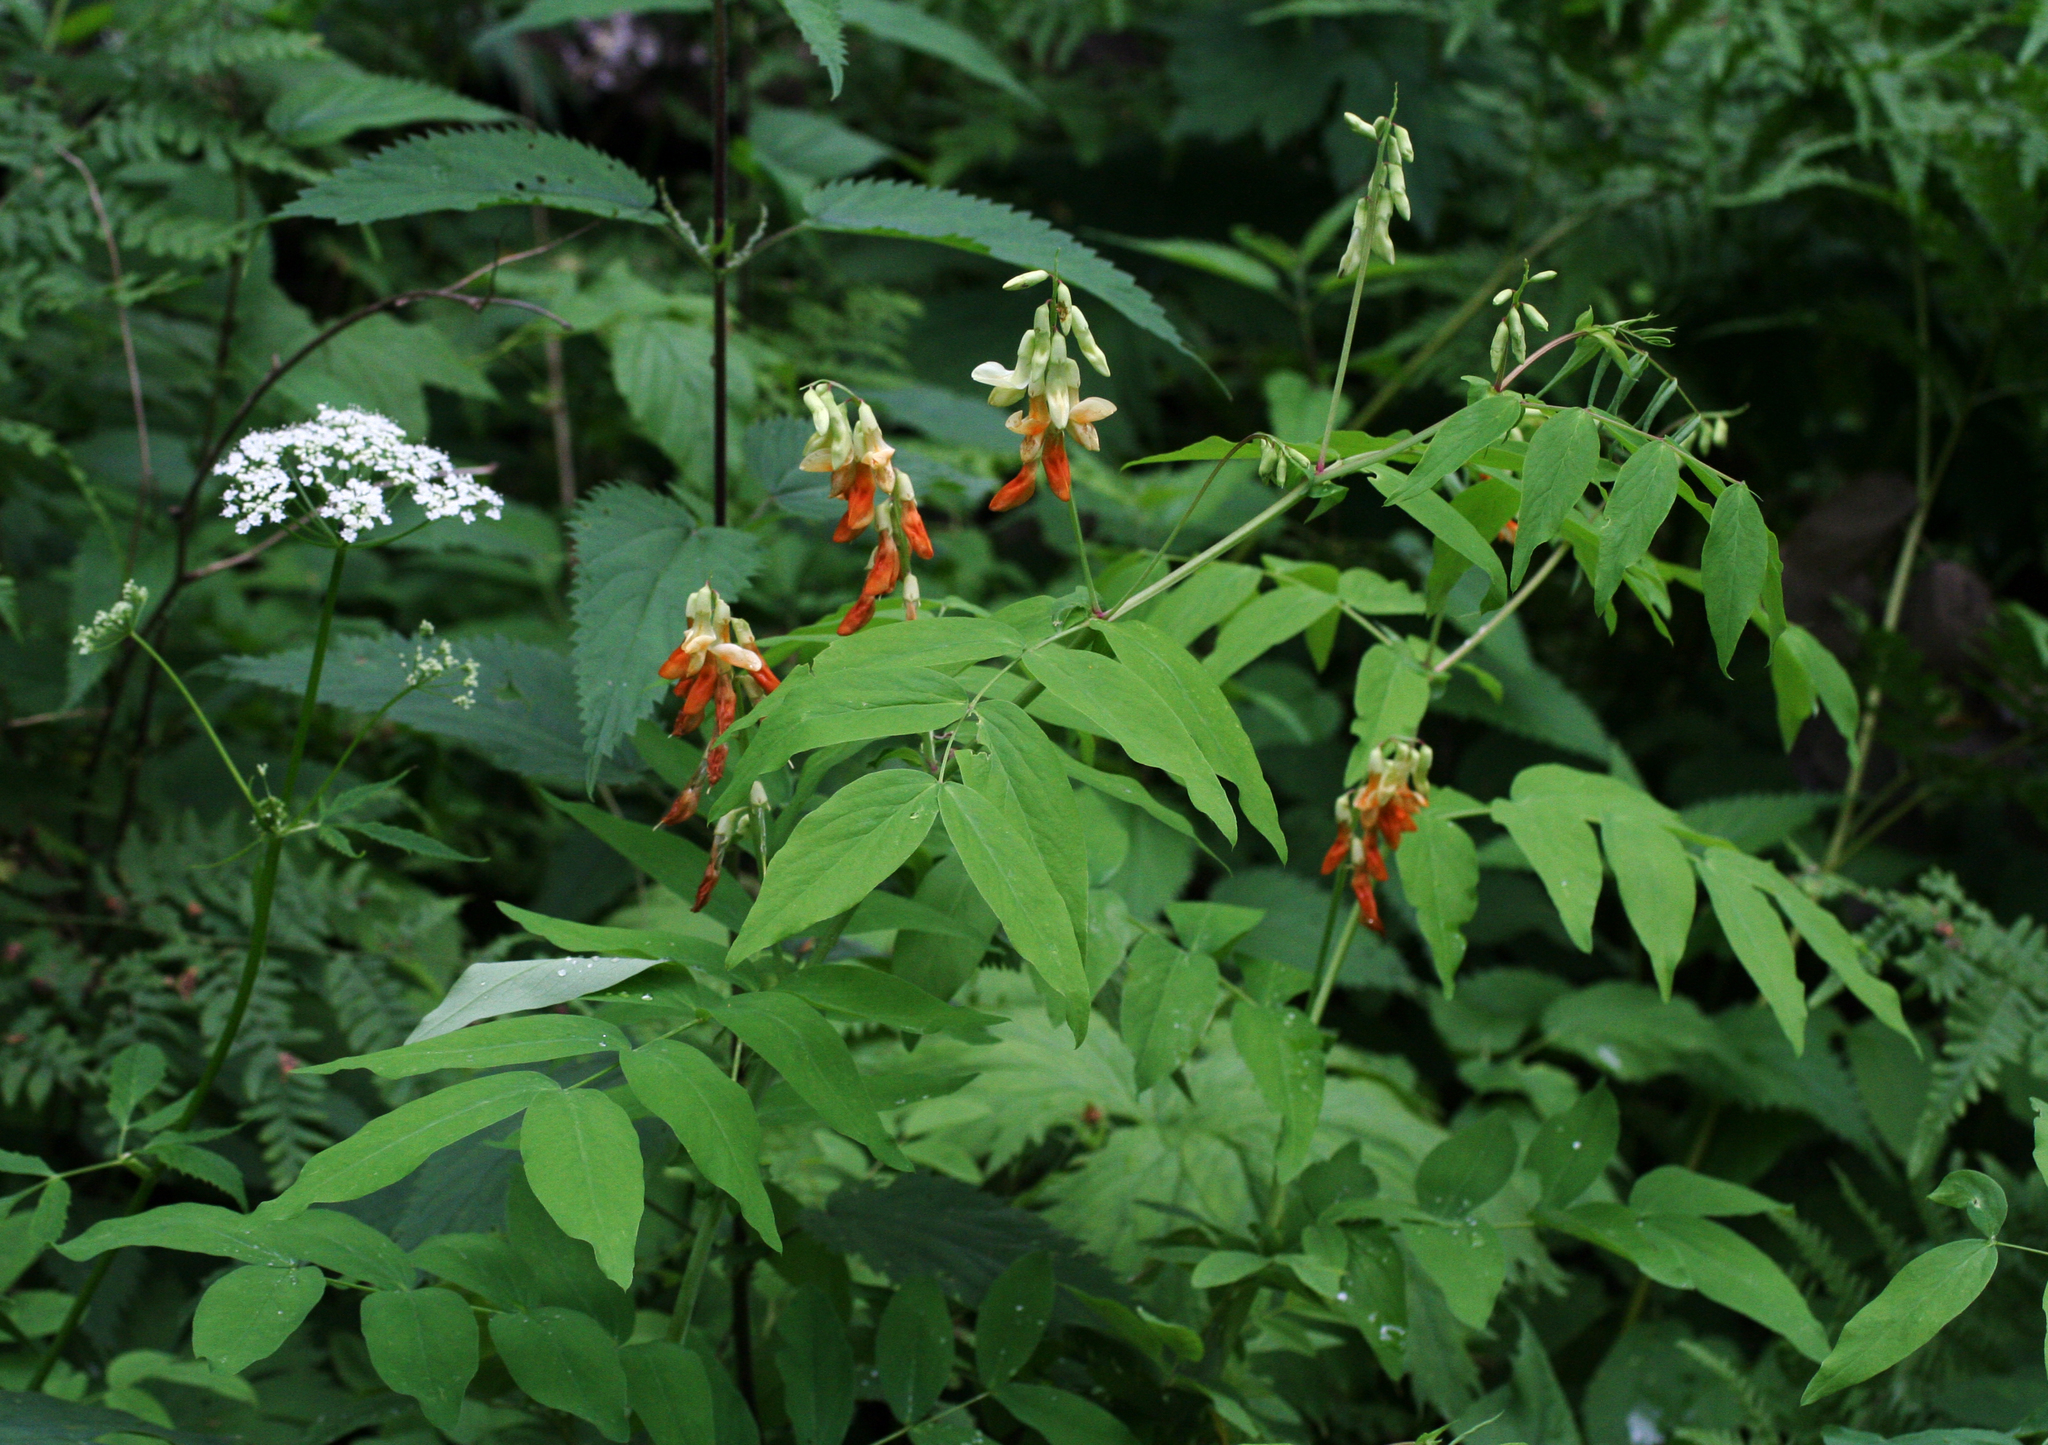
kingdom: Plantae
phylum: Tracheophyta
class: Magnoliopsida
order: Fabales
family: Fabaceae
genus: Lathyrus
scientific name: Lathyrus gmelinii
